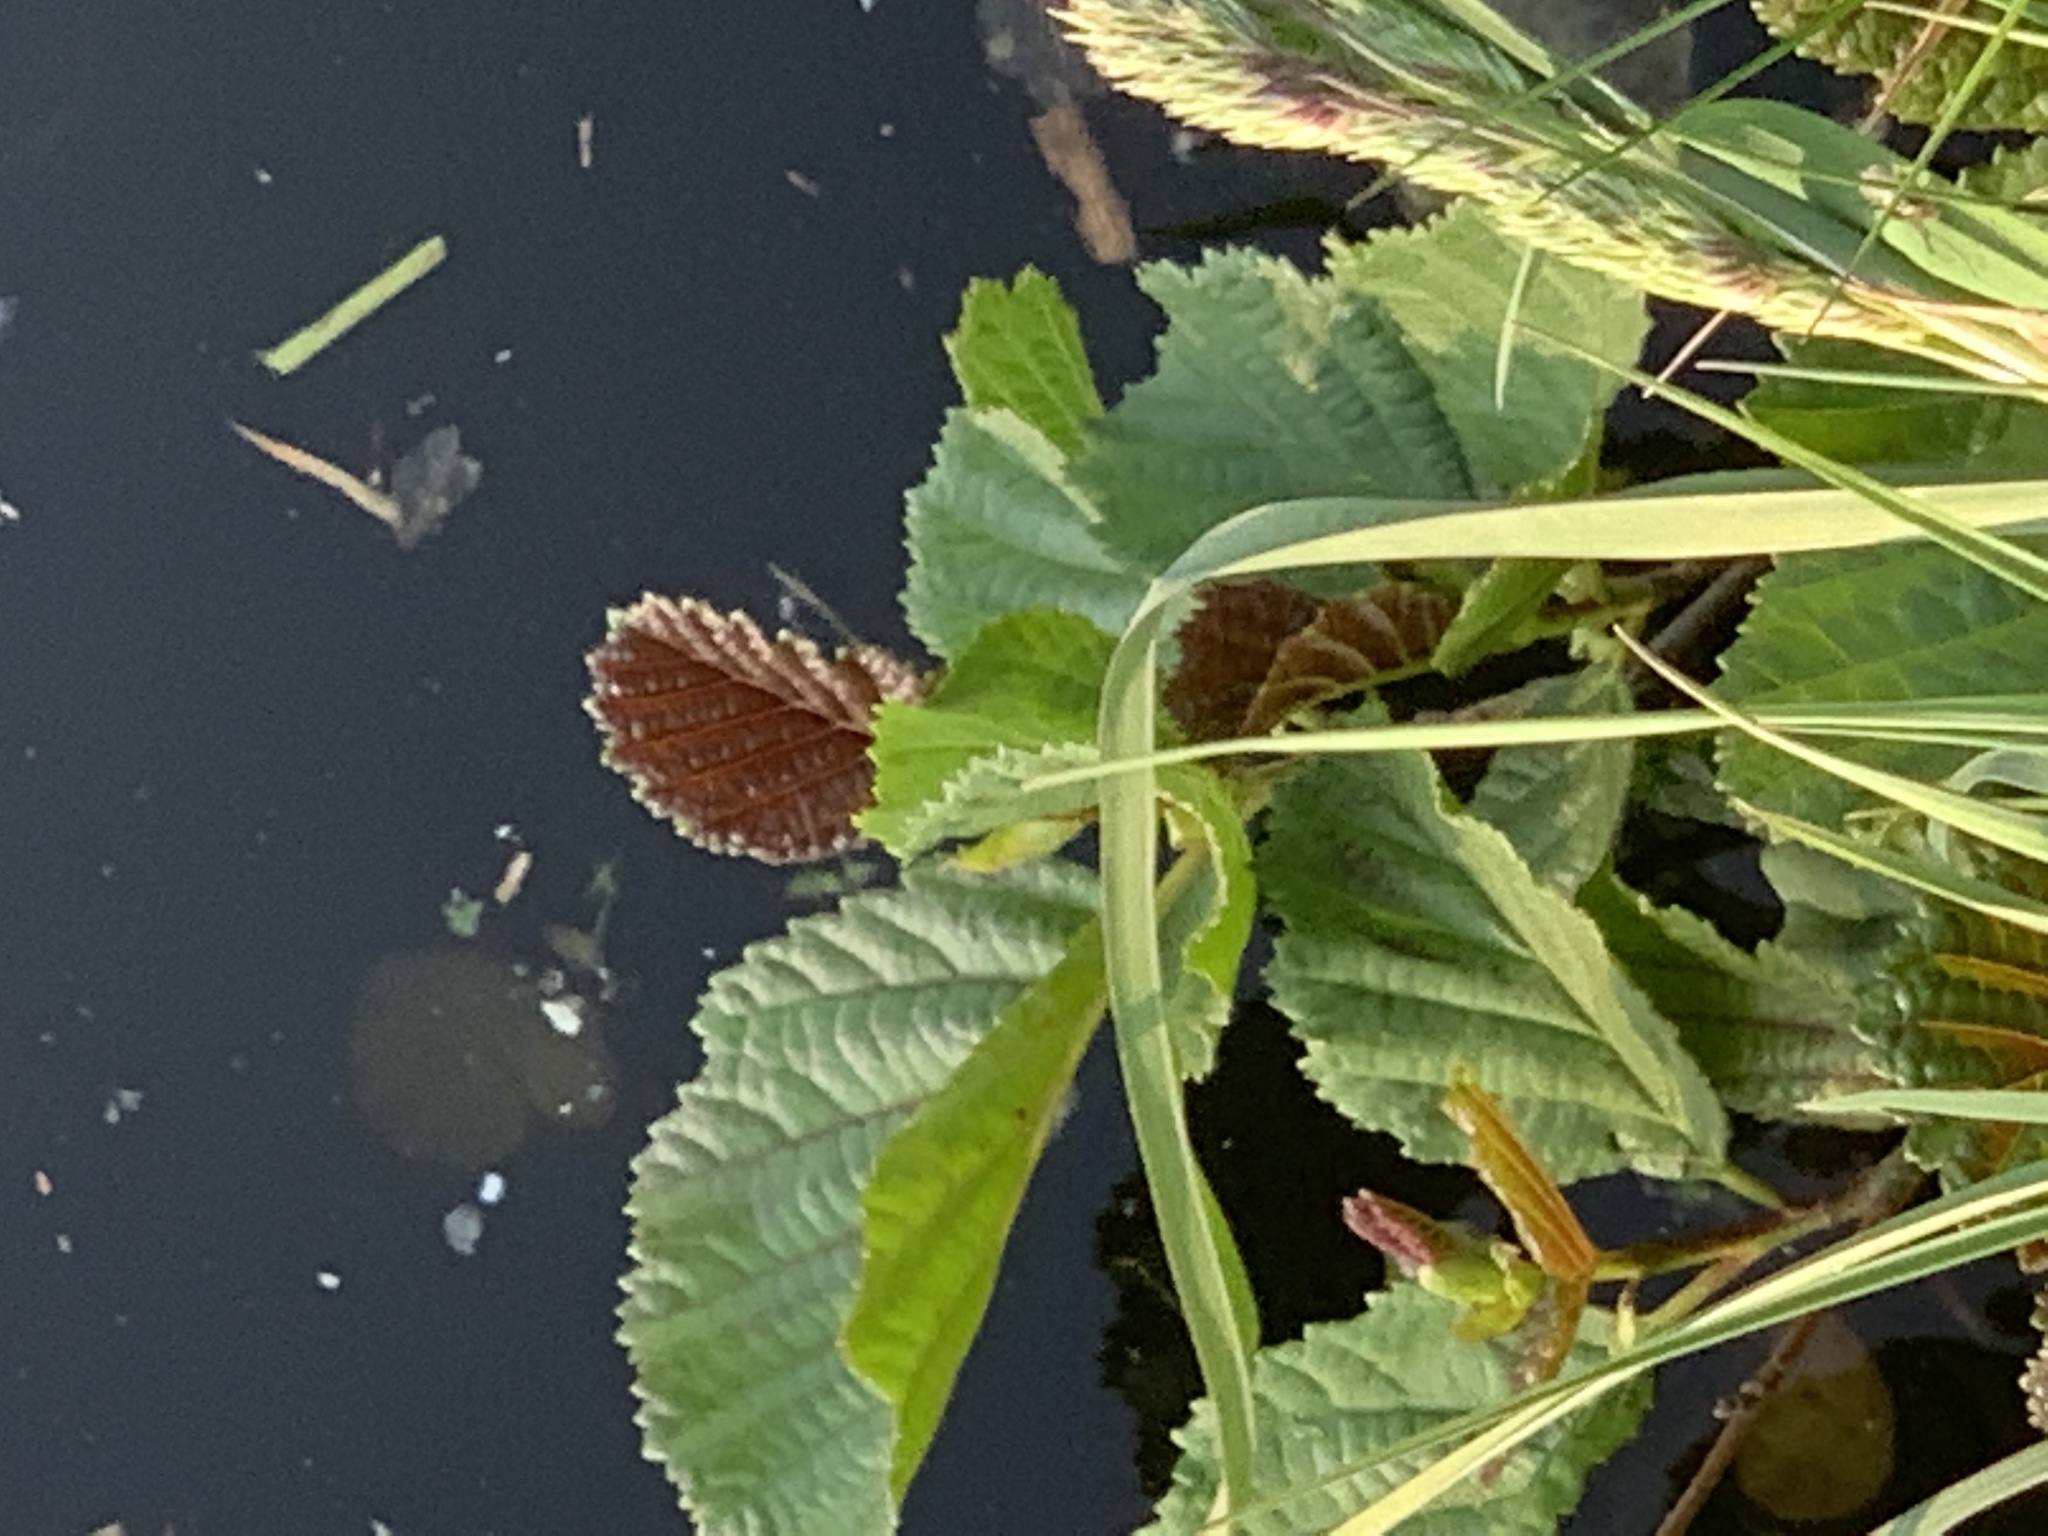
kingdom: Plantae
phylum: Tracheophyta
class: Magnoliopsida
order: Fagales
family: Betulaceae
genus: Alnus
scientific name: Alnus glutinosa
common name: Black alder
